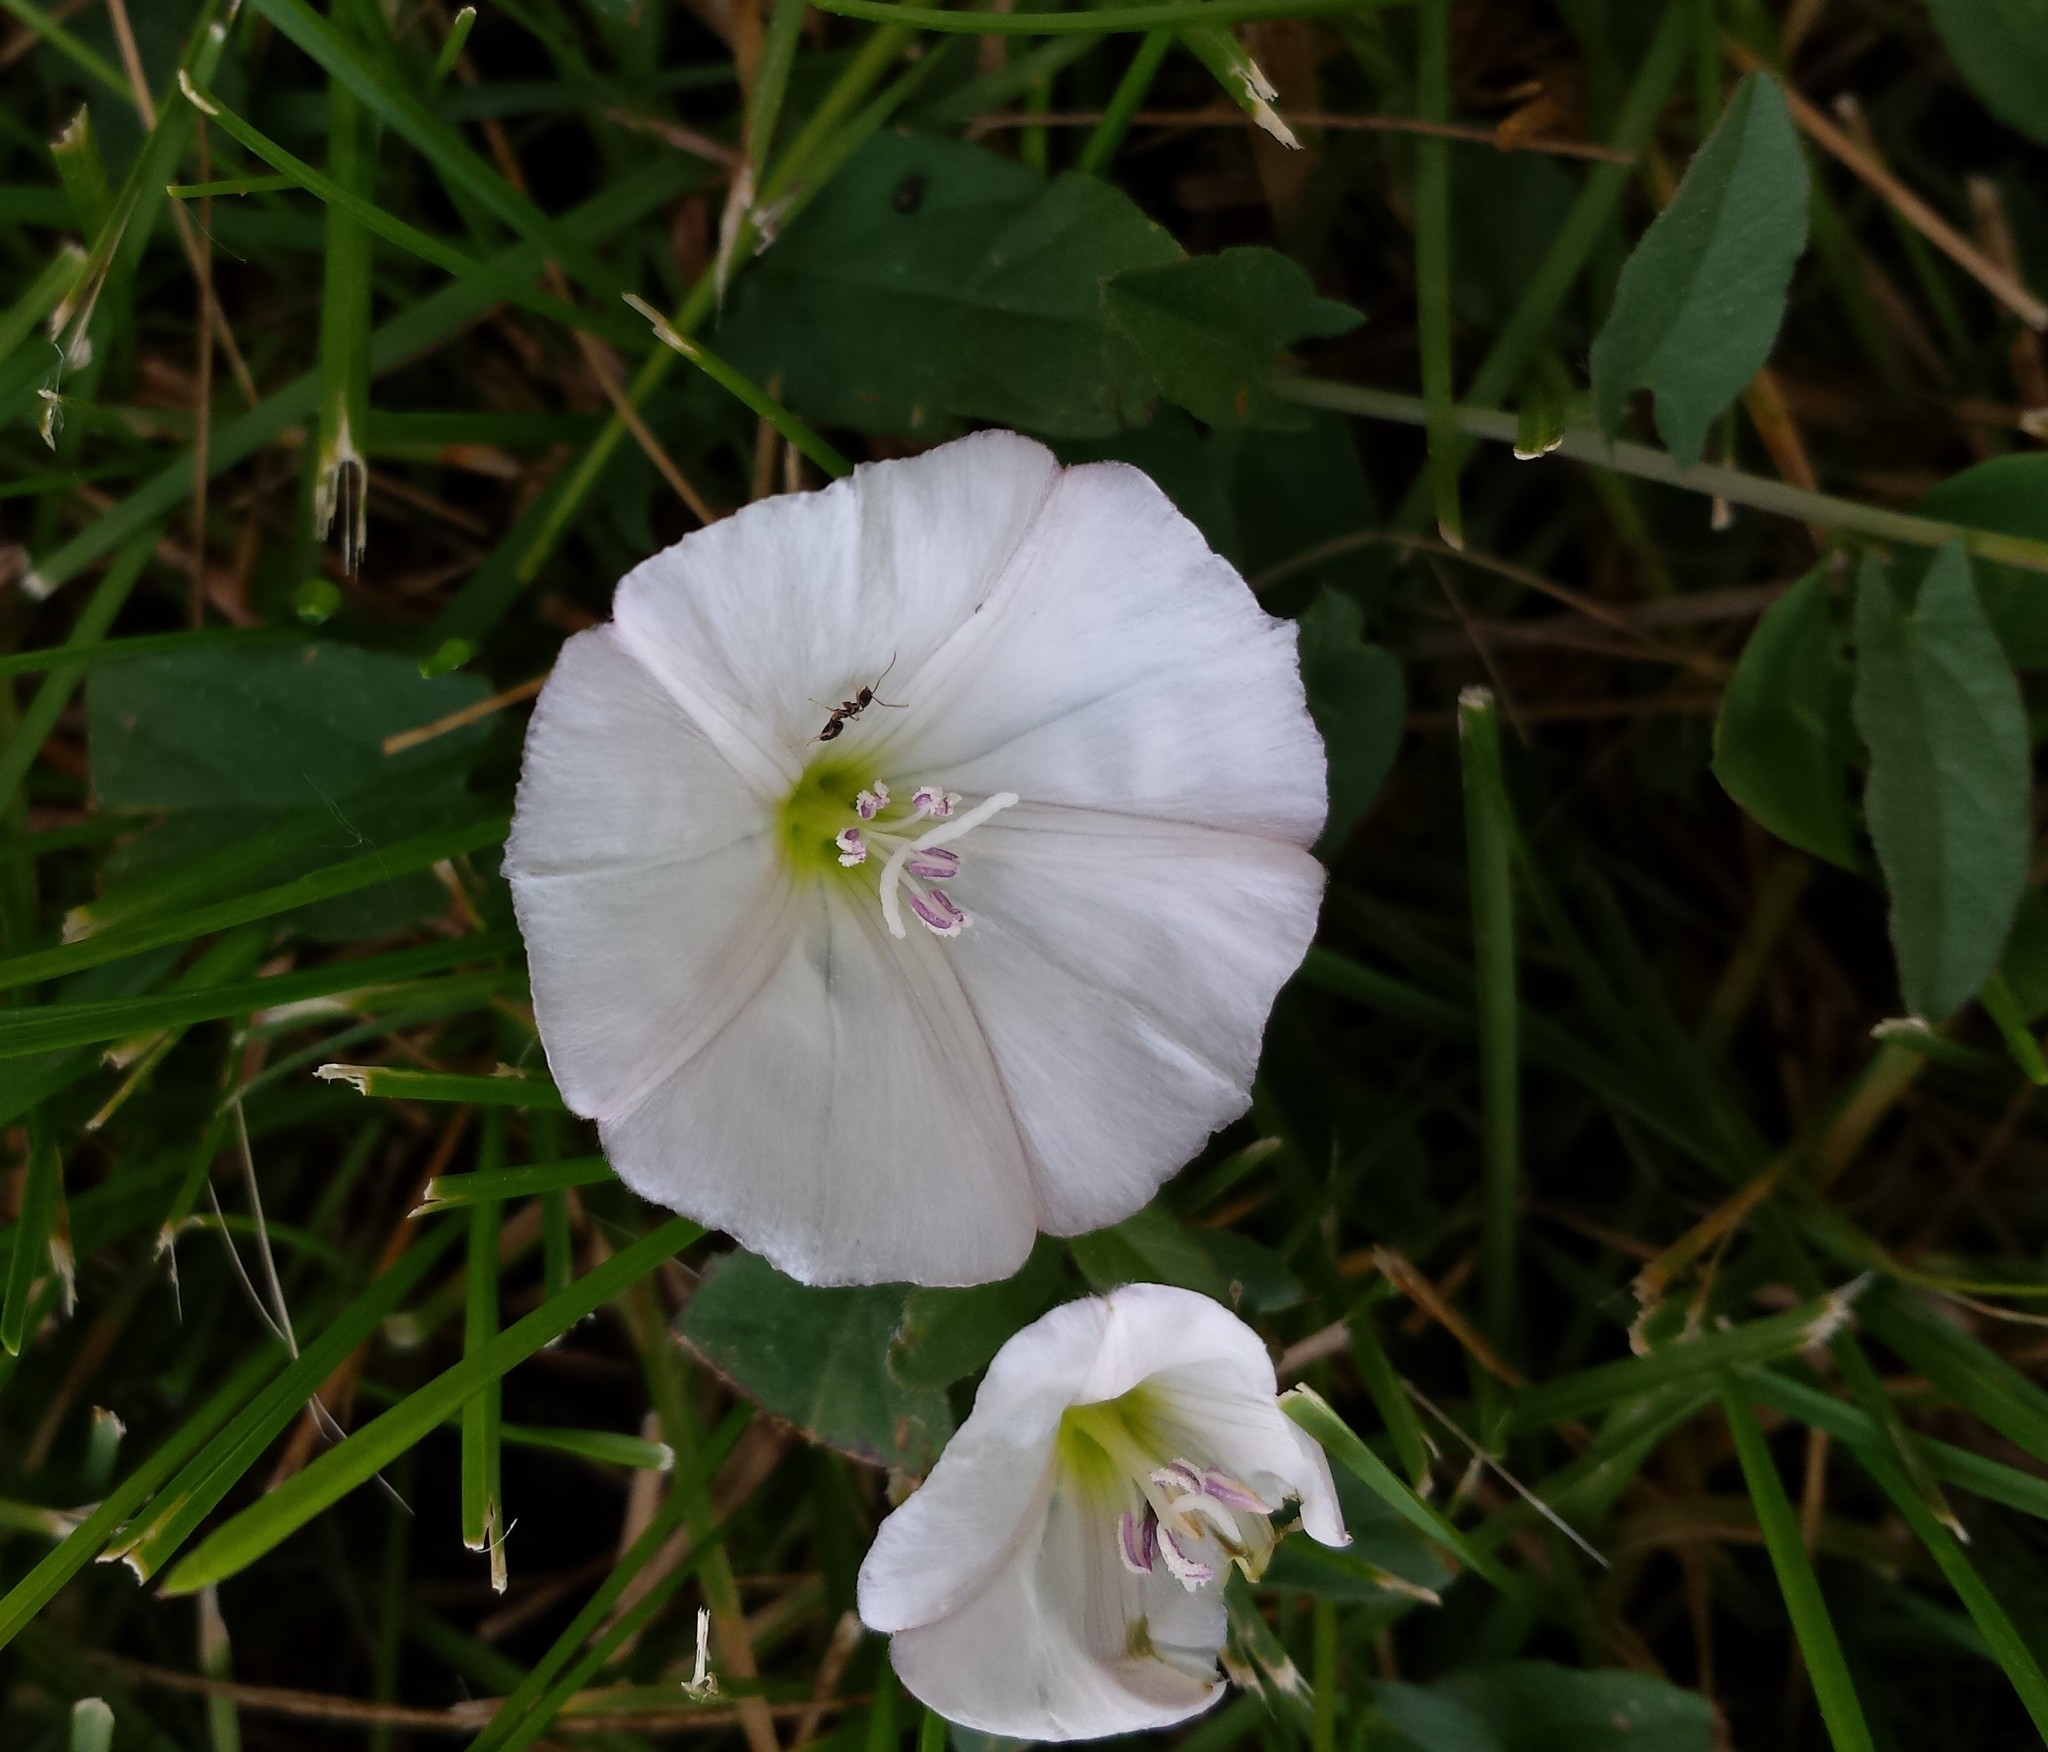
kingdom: Plantae
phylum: Tracheophyta
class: Magnoliopsida
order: Solanales
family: Convolvulaceae
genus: Convolvulus
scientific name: Convolvulus arvensis
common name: Field bindweed
